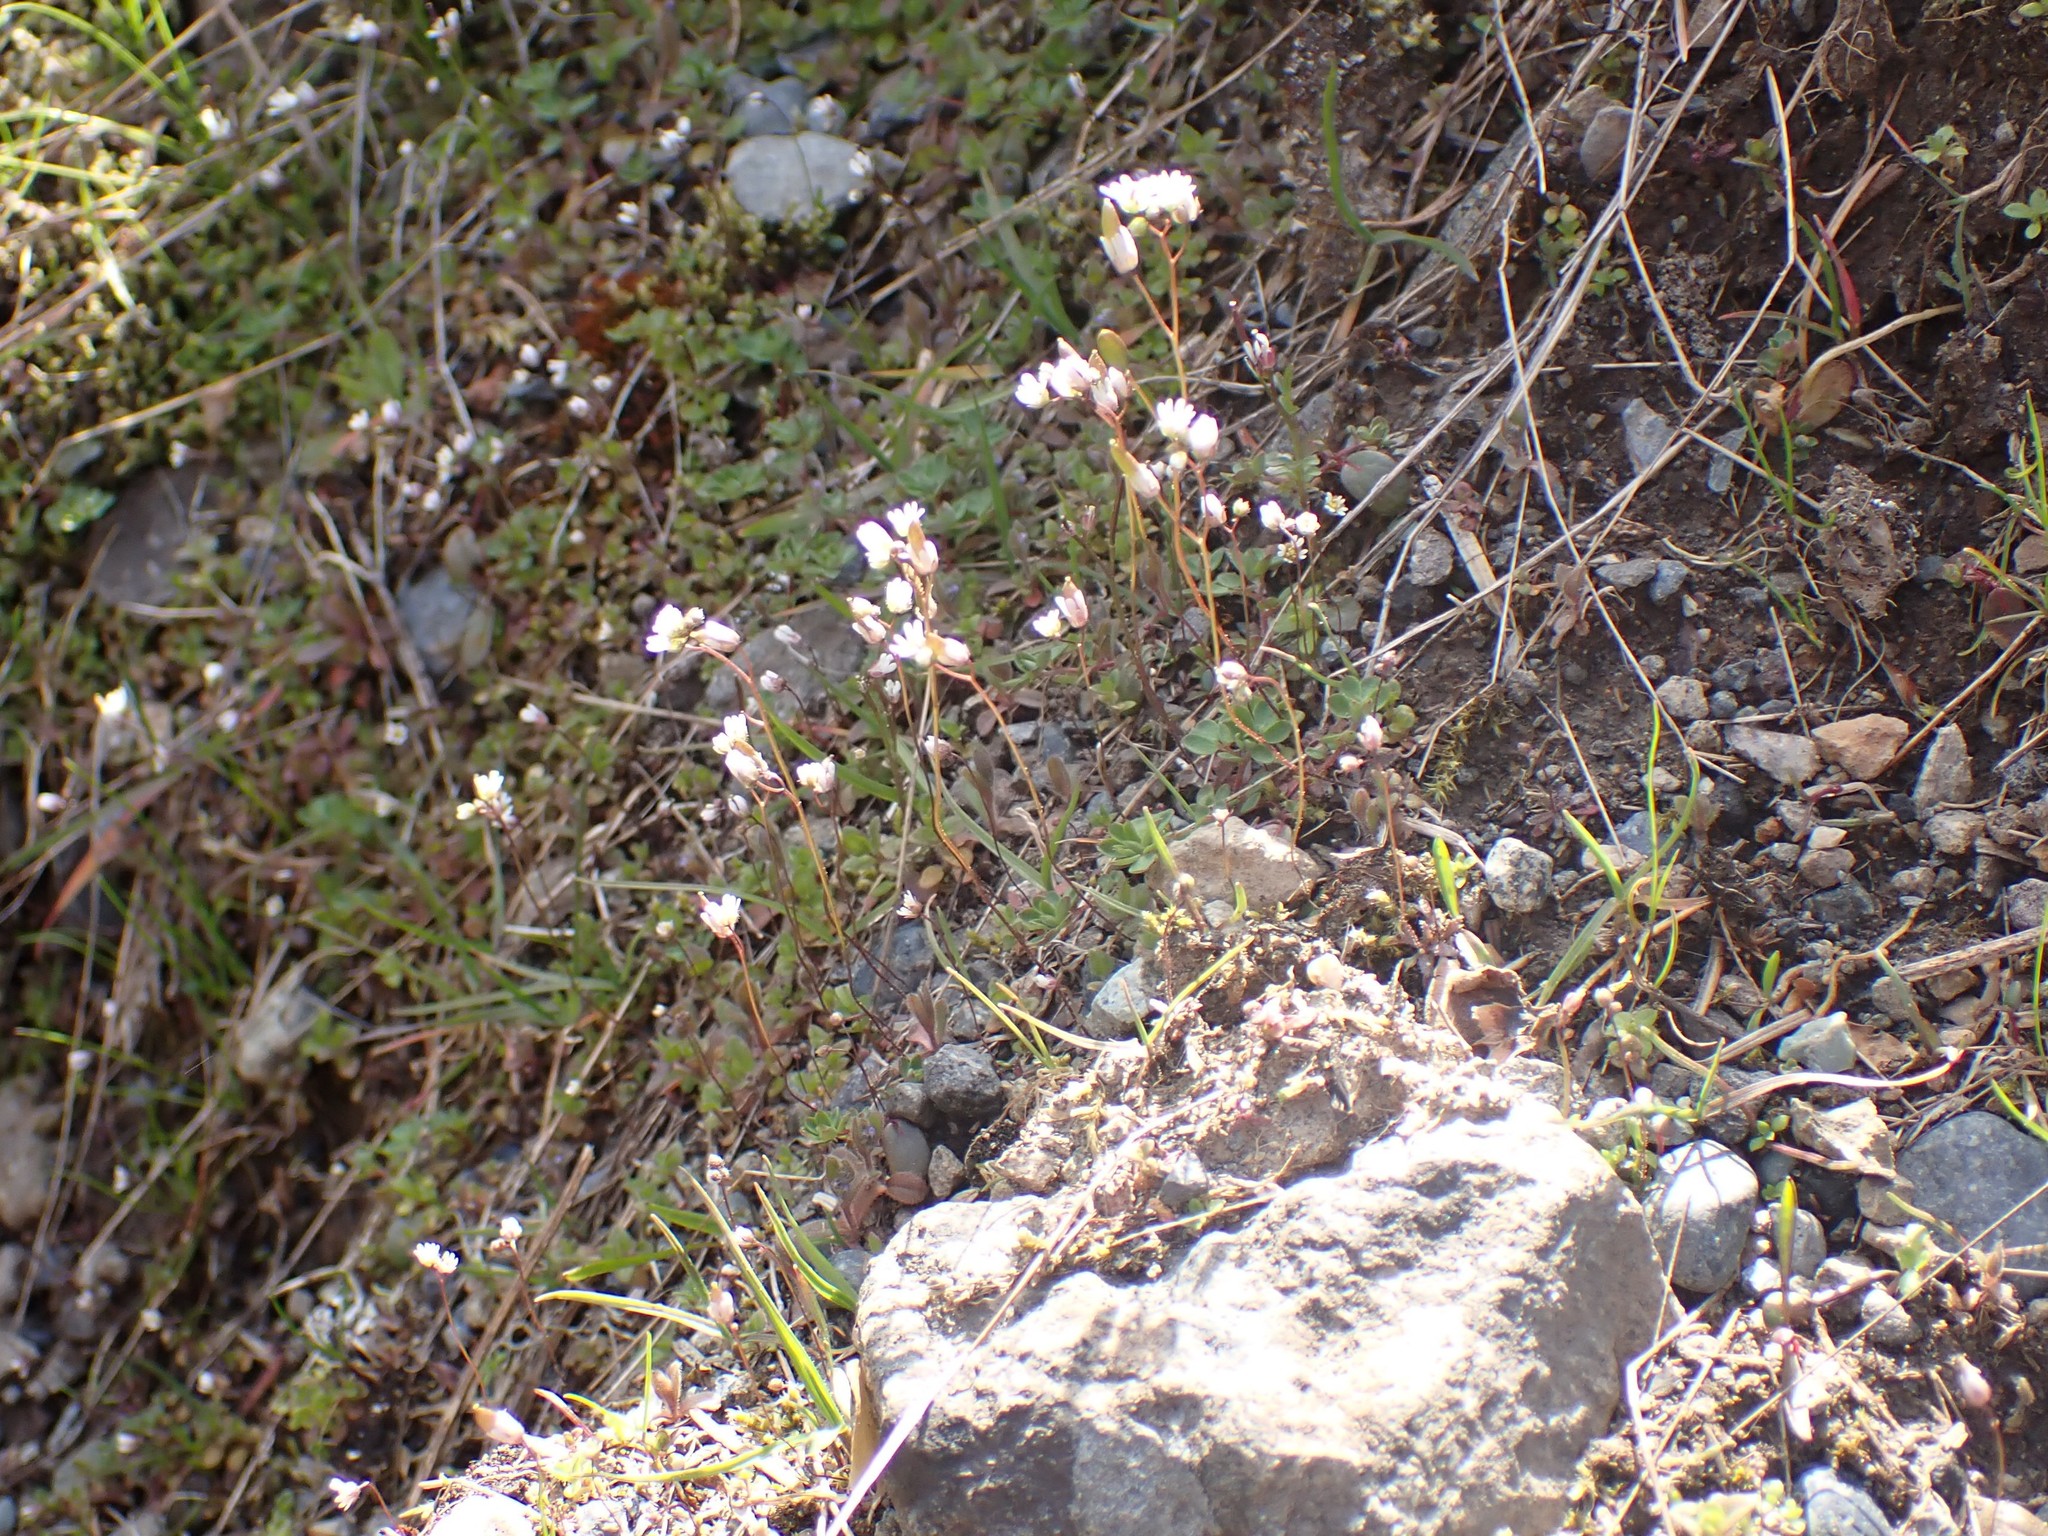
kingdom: Plantae
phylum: Tracheophyta
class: Magnoliopsida
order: Brassicales
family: Brassicaceae
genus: Draba
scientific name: Draba verna
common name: Spring draba
